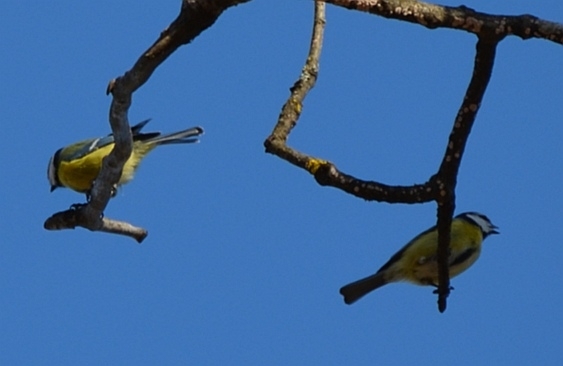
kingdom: Animalia
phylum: Chordata
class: Aves
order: Passeriformes
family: Paridae
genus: Cyanistes
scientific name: Cyanistes caeruleus
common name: Eurasian blue tit
